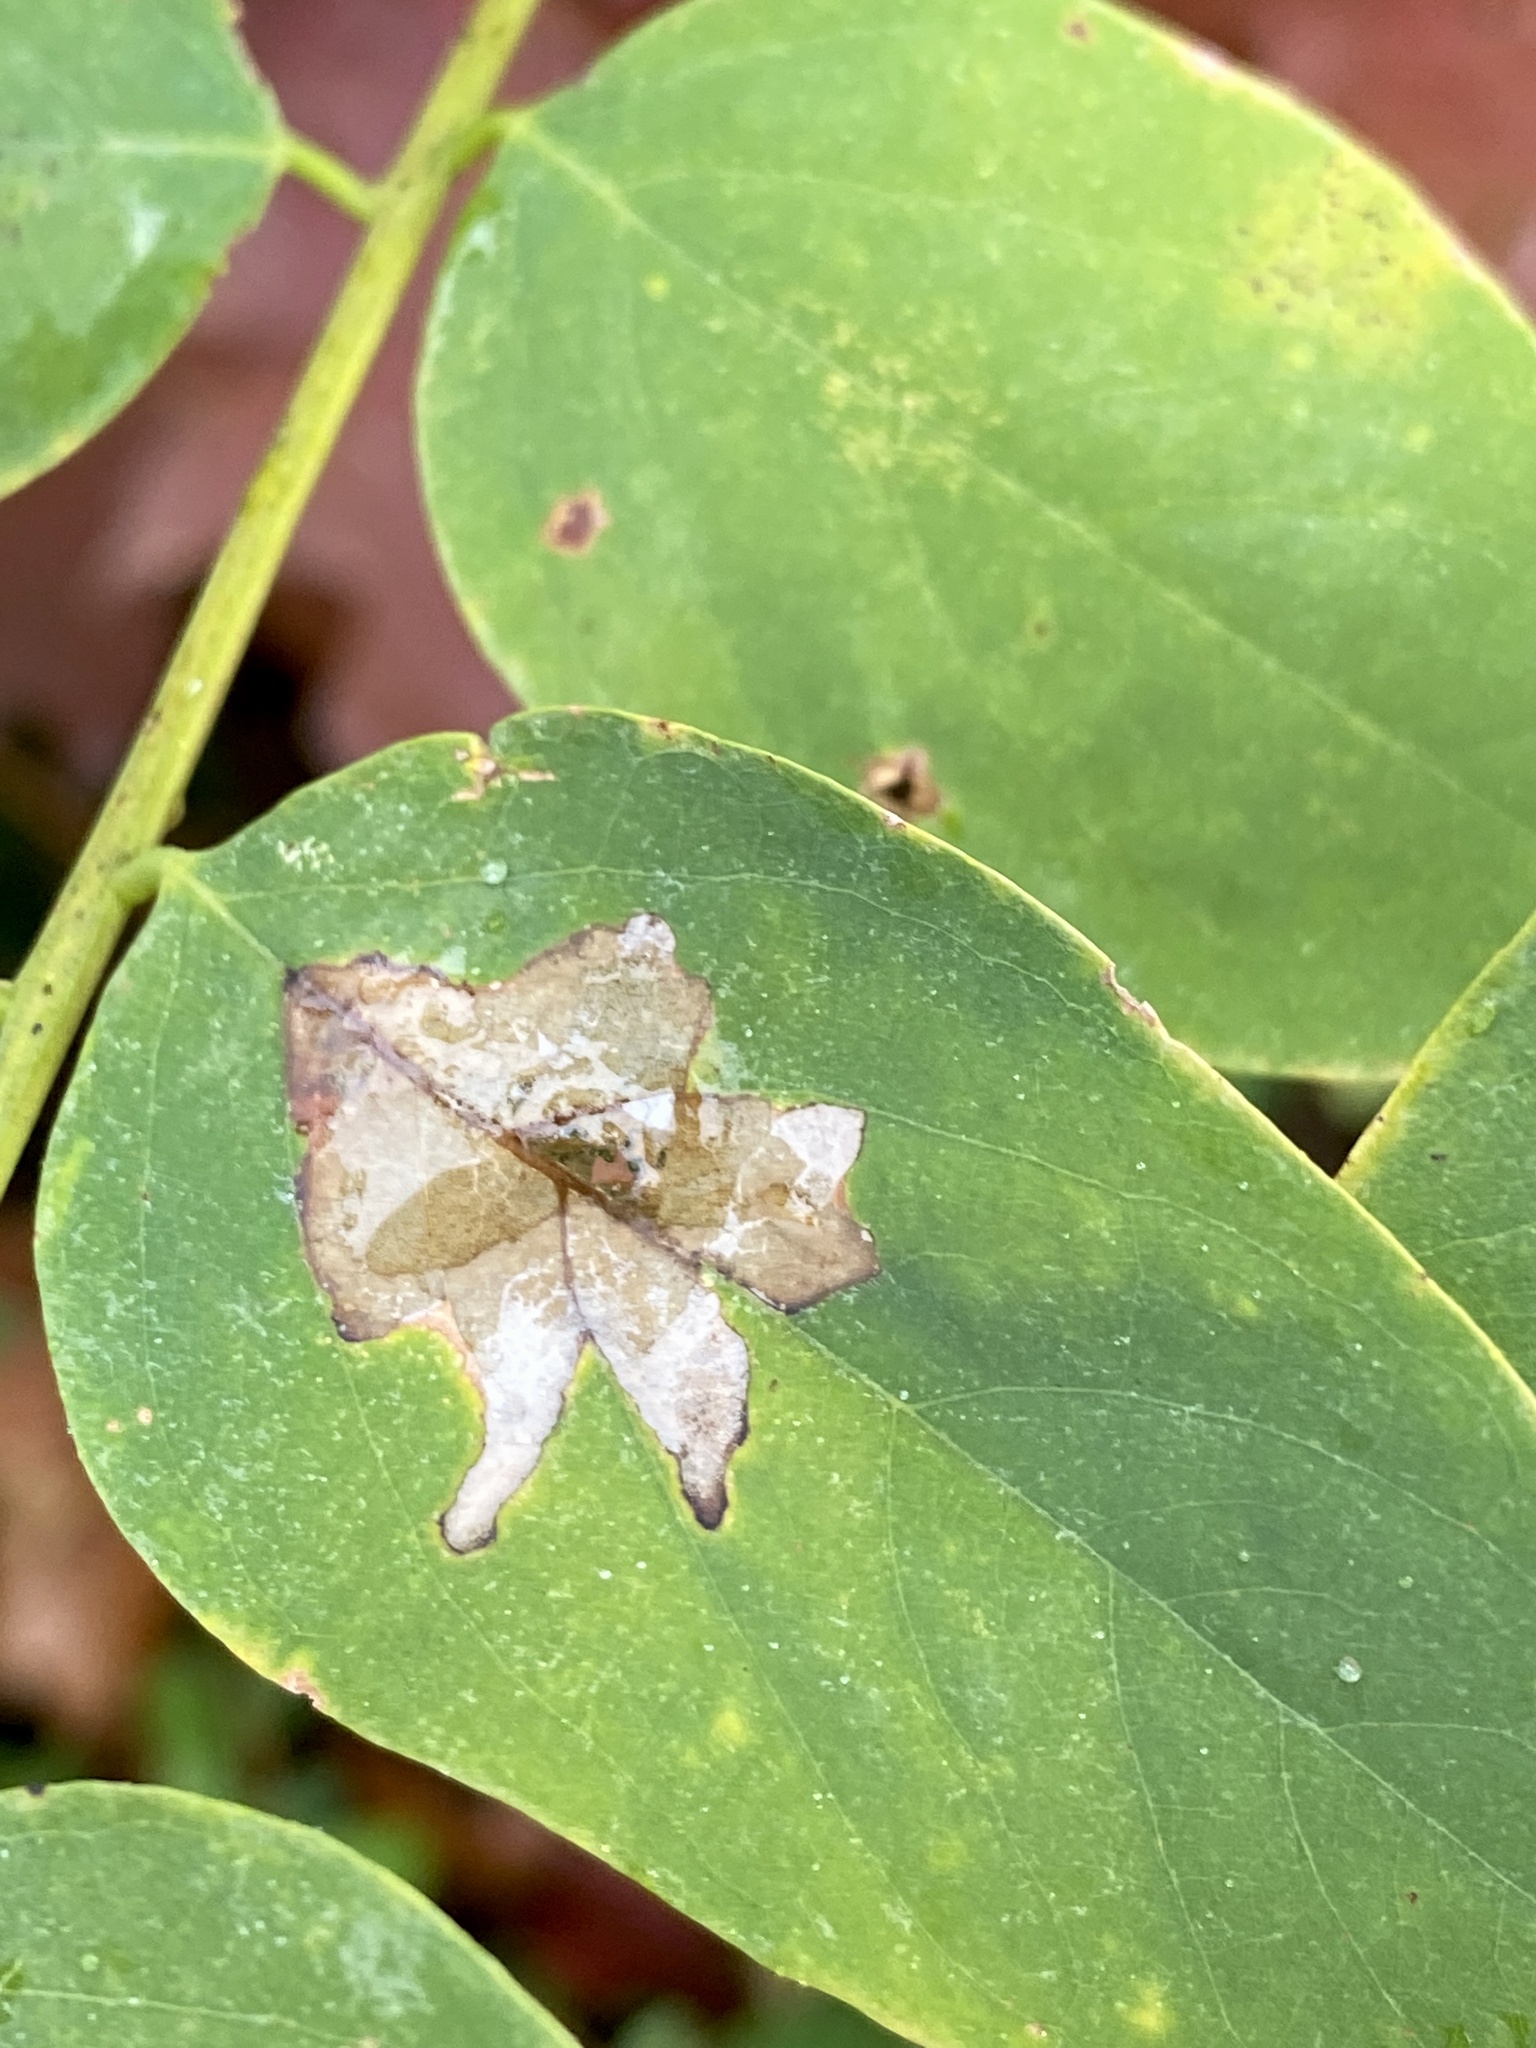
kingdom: Animalia
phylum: Arthropoda
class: Insecta
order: Lepidoptera
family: Gracillariidae
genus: Parectopa
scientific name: Parectopa robiniella
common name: Locust digitate leafminer
